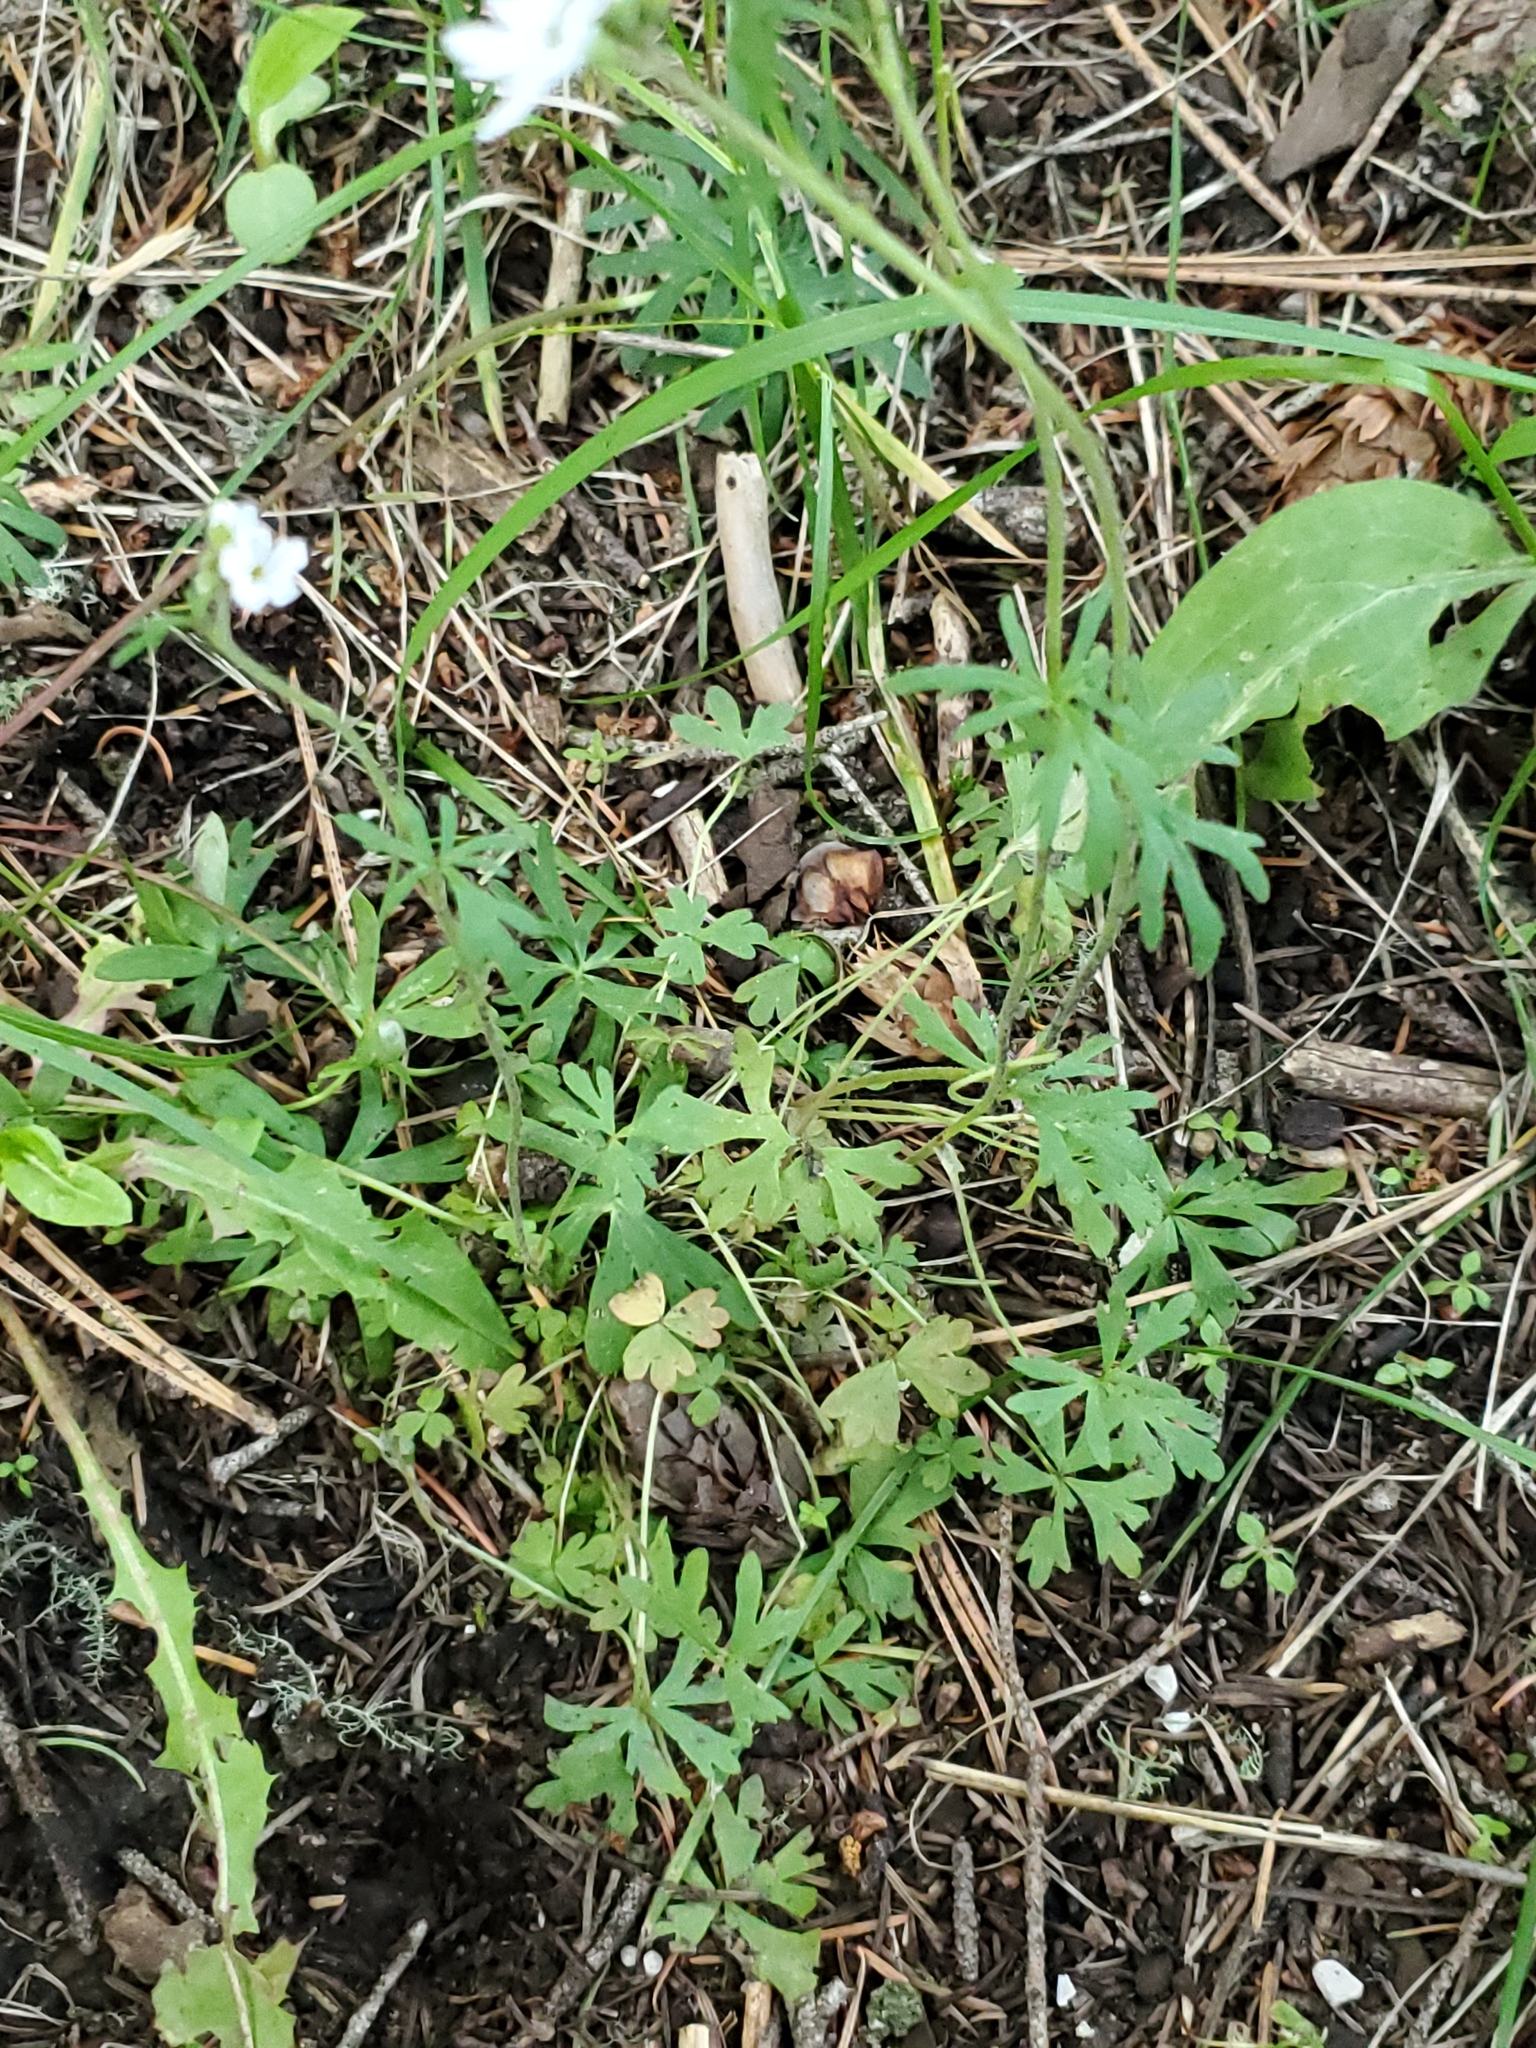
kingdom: Plantae
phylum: Tracheophyta
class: Magnoliopsida
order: Saxifragales
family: Saxifragaceae
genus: Lithophragma
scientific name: Lithophragma parviflorum
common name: Small-flowered fringe-cup
